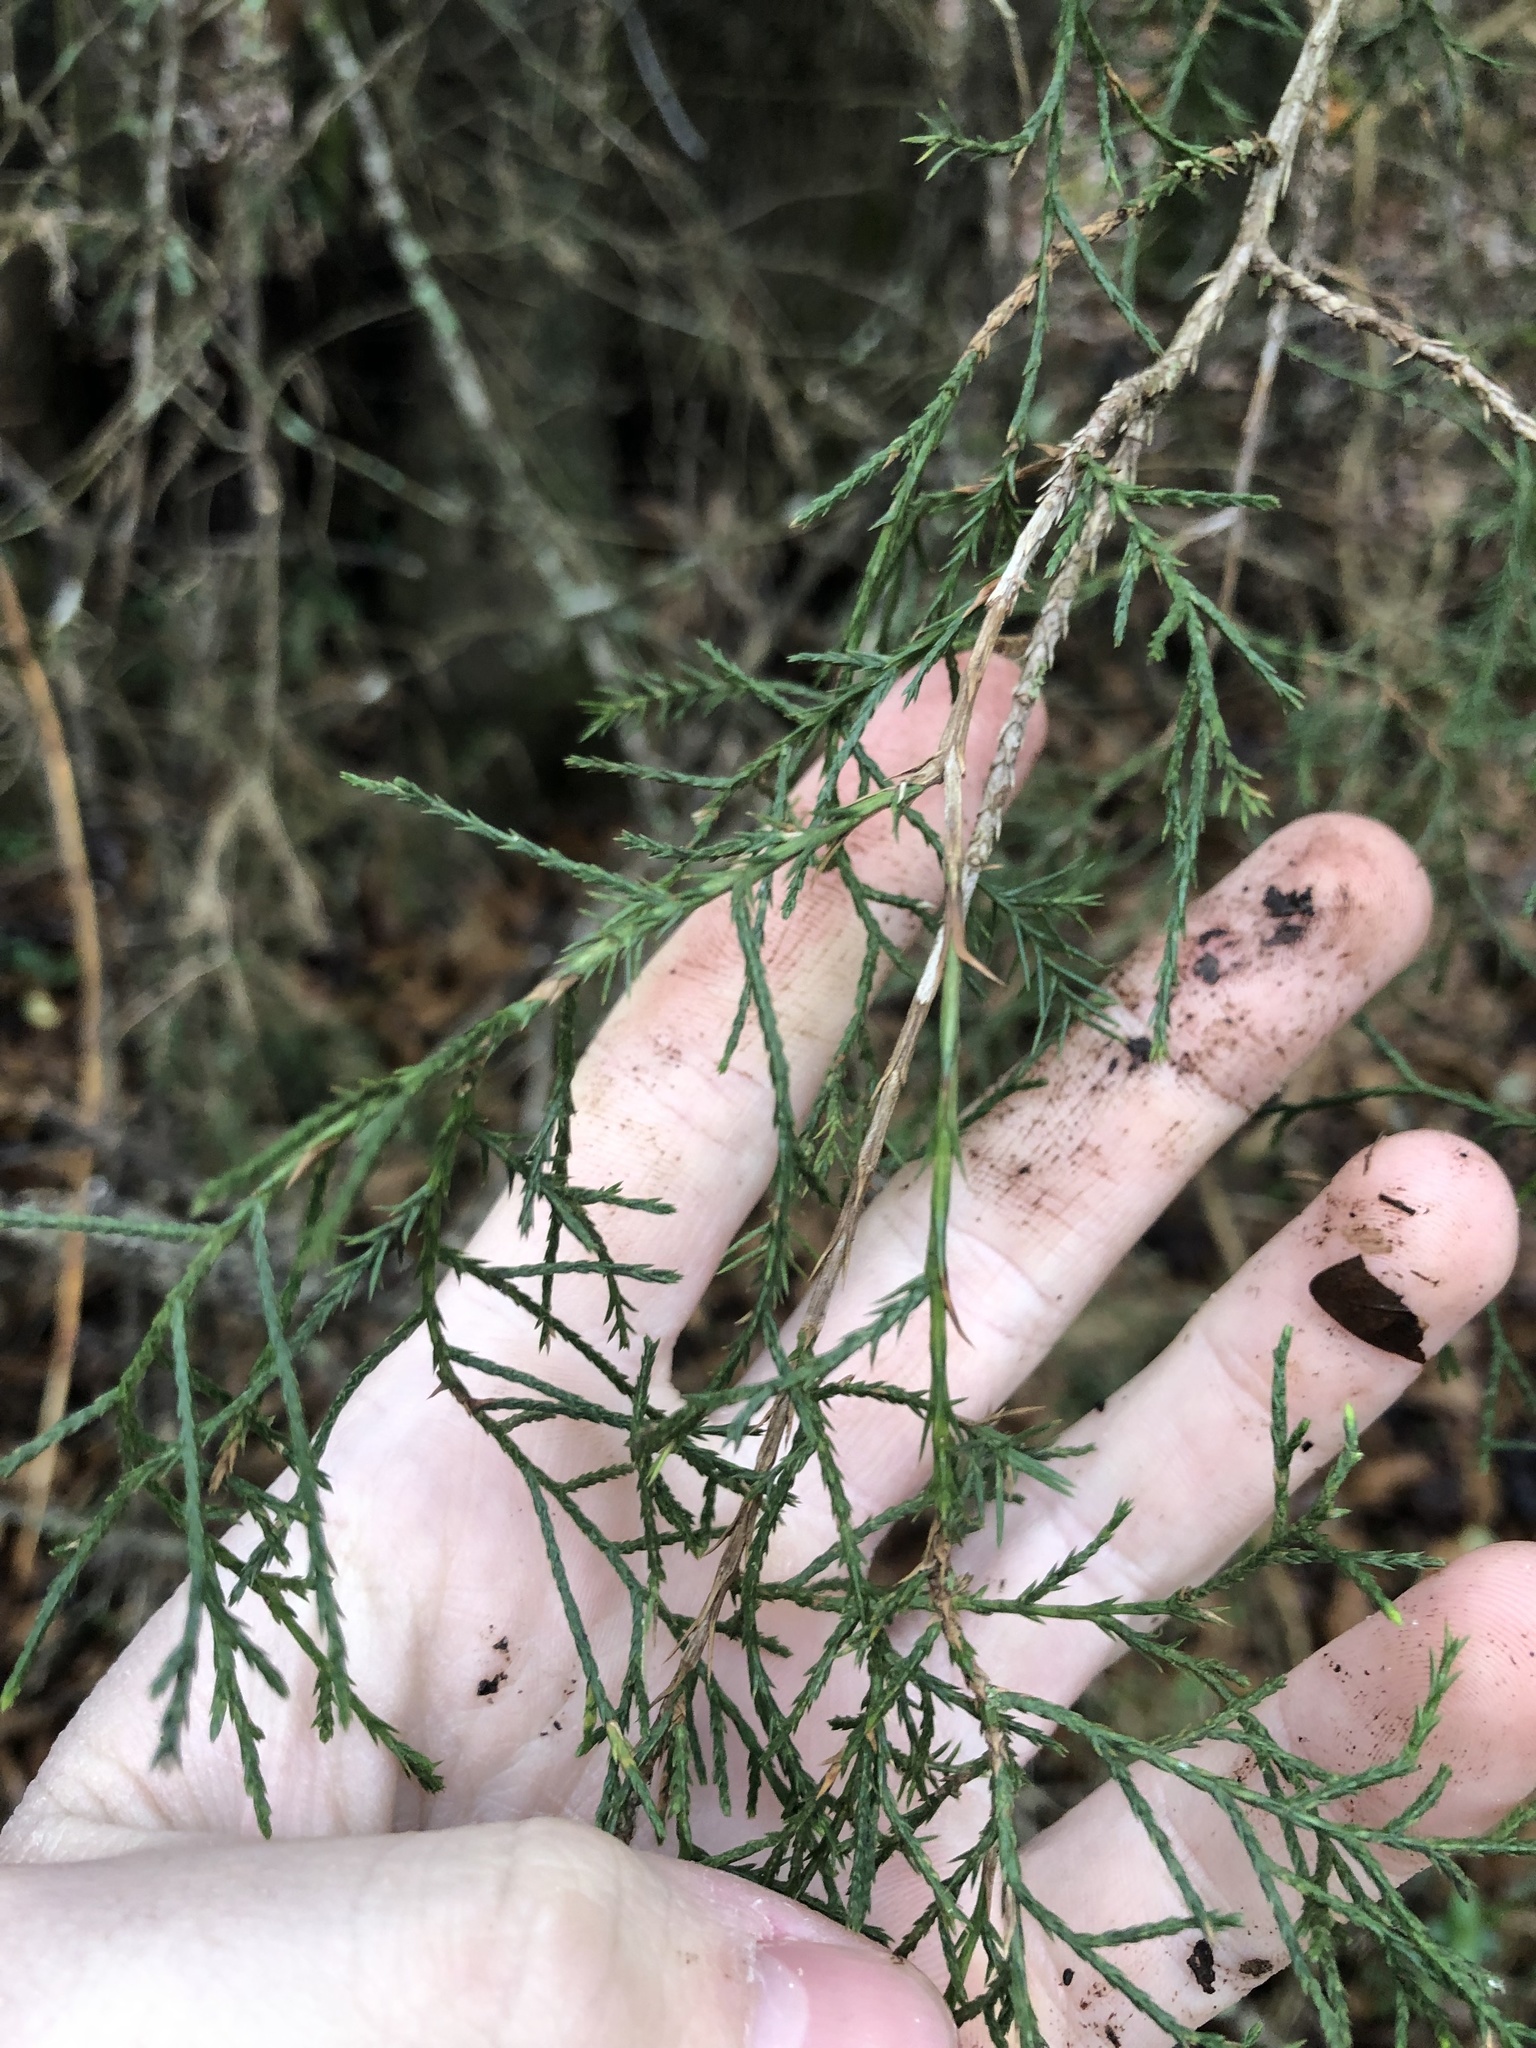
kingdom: Plantae
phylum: Tracheophyta
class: Pinopsida
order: Pinales
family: Cupressaceae
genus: Juniperus
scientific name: Juniperus virginiana
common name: Red juniper
